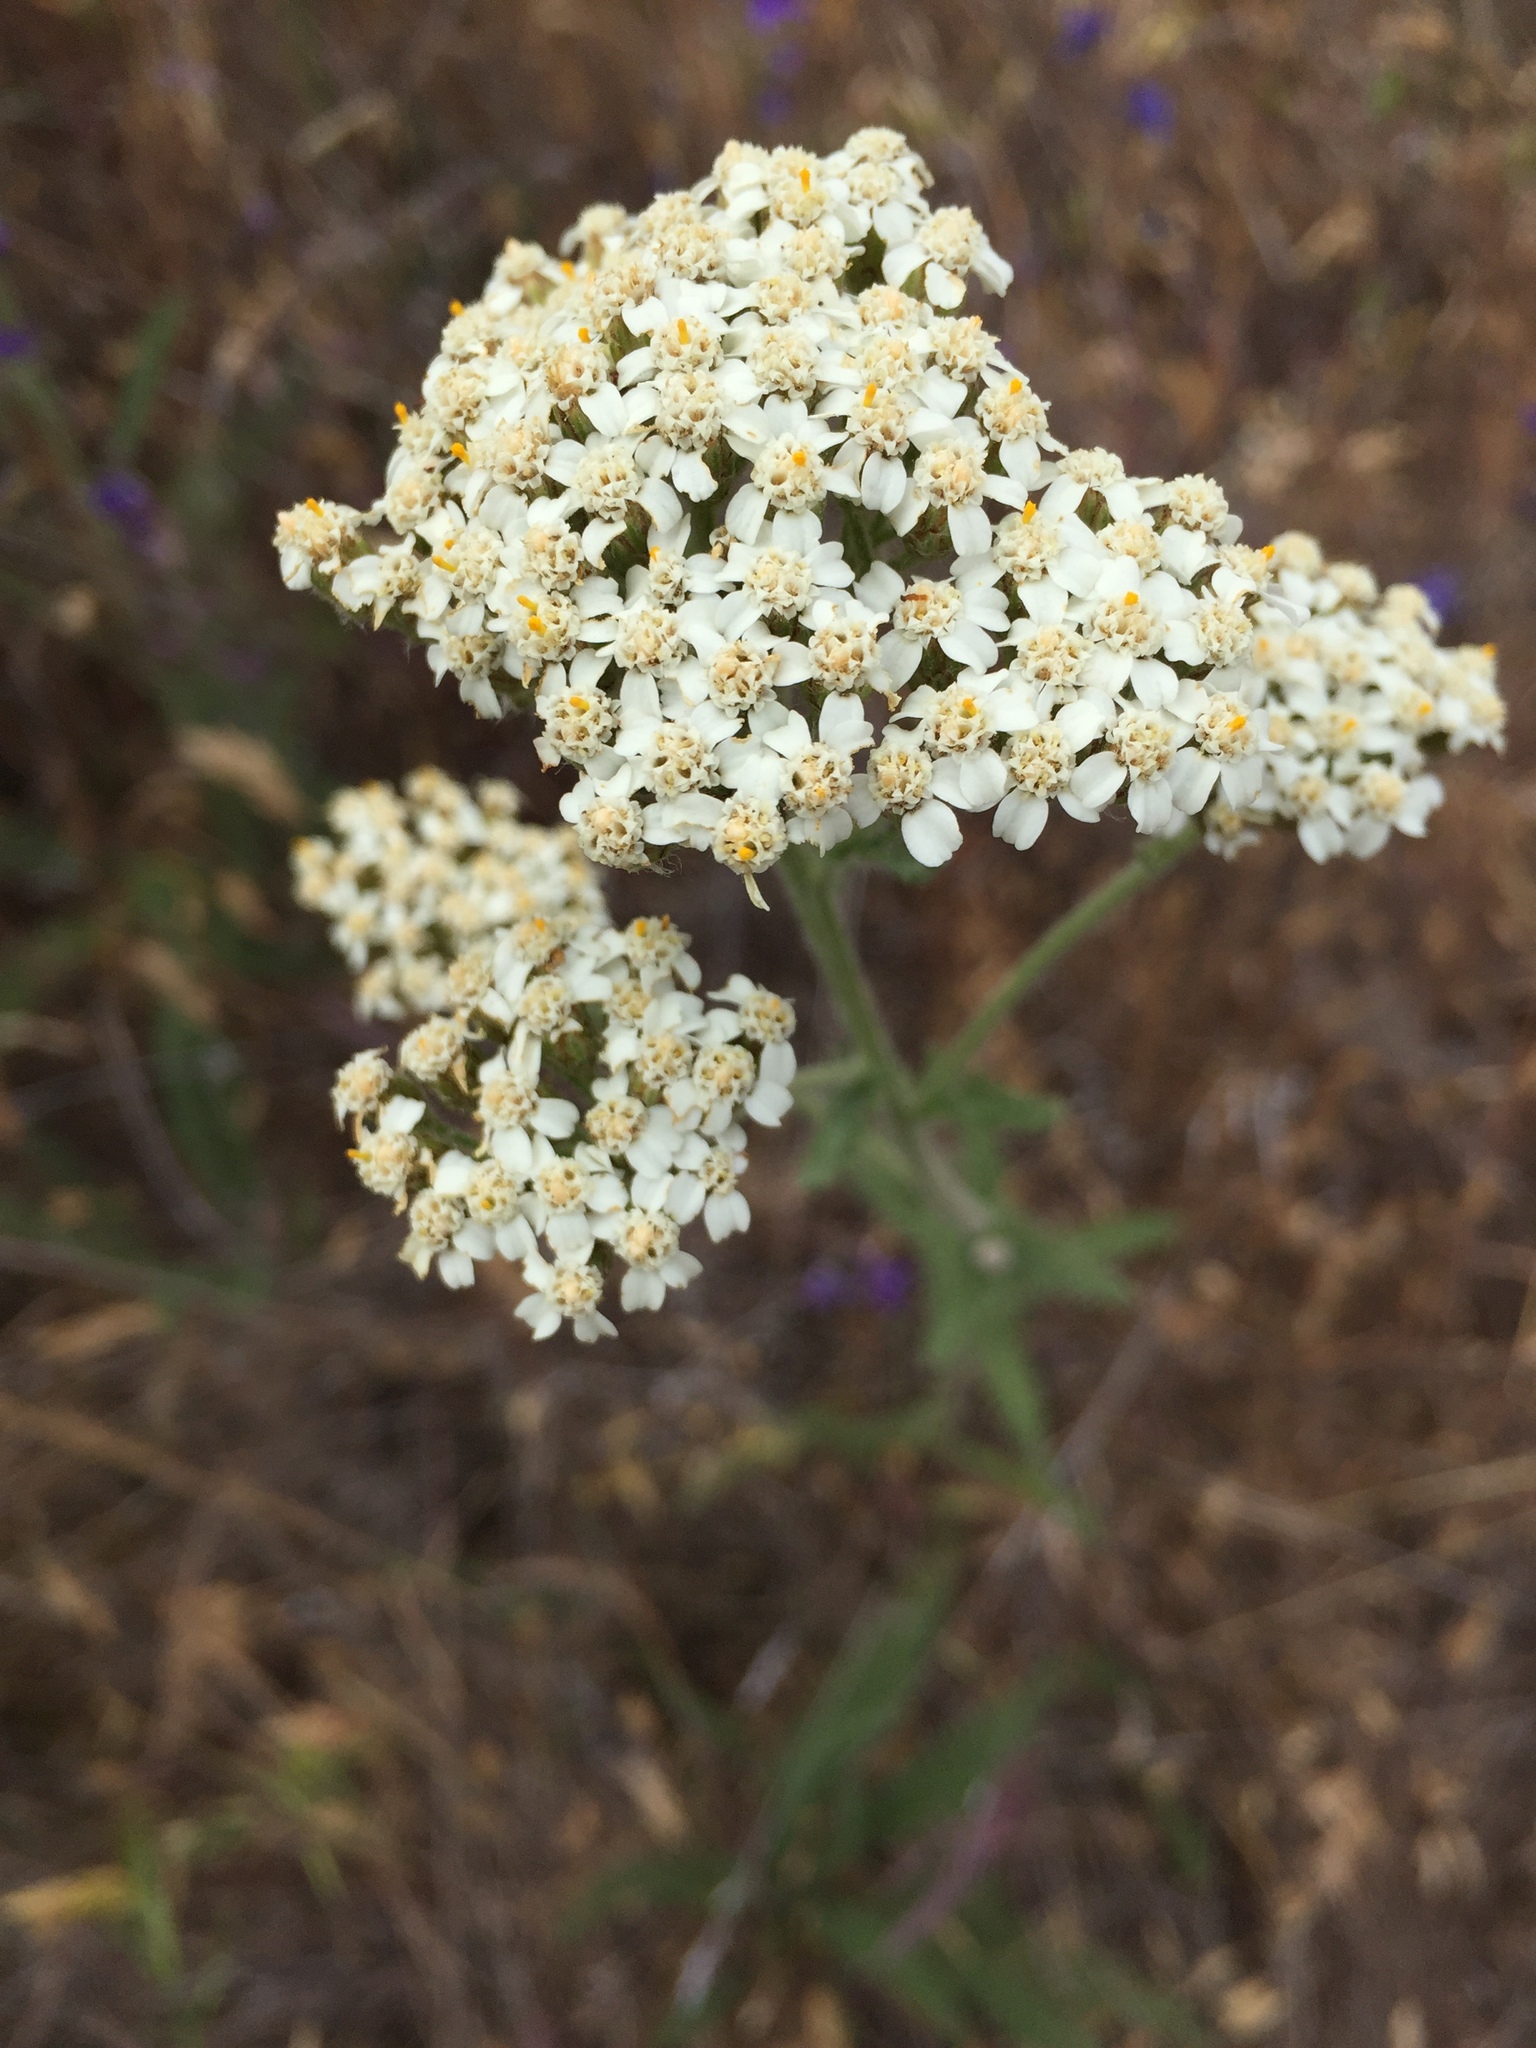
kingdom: Plantae
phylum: Tracheophyta
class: Magnoliopsida
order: Asterales
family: Asteraceae
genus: Achillea
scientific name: Achillea millefolium
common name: Yarrow
